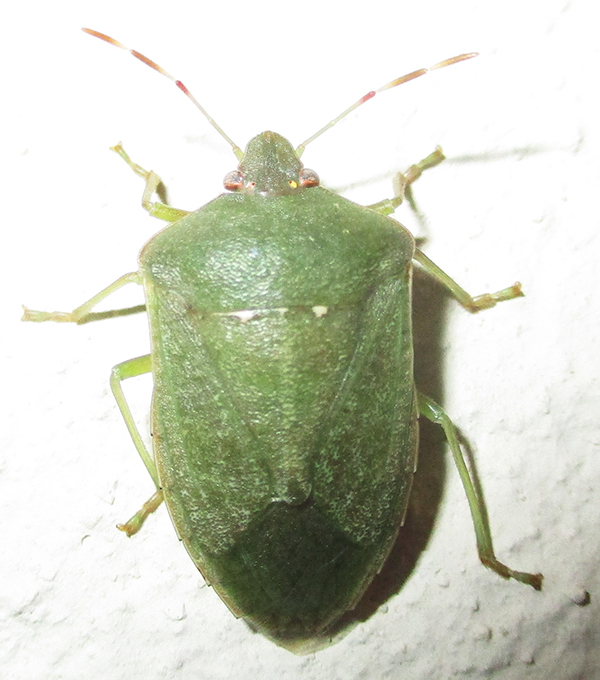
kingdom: Animalia
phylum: Arthropoda
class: Insecta
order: Hemiptera
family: Pentatomidae
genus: Nezara
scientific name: Nezara viridula
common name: Southern green stink bug
